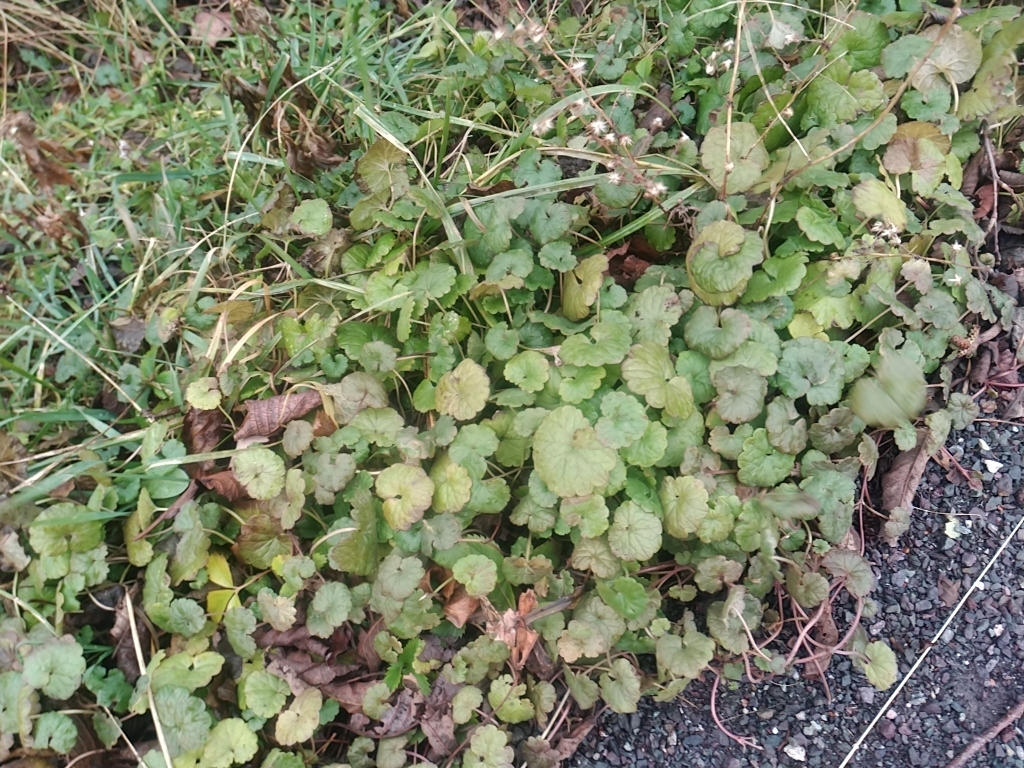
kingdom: Plantae
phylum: Tracheophyta
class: Magnoliopsida
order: Lamiales
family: Lamiaceae
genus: Glechoma
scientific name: Glechoma hederacea
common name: Ground ivy
